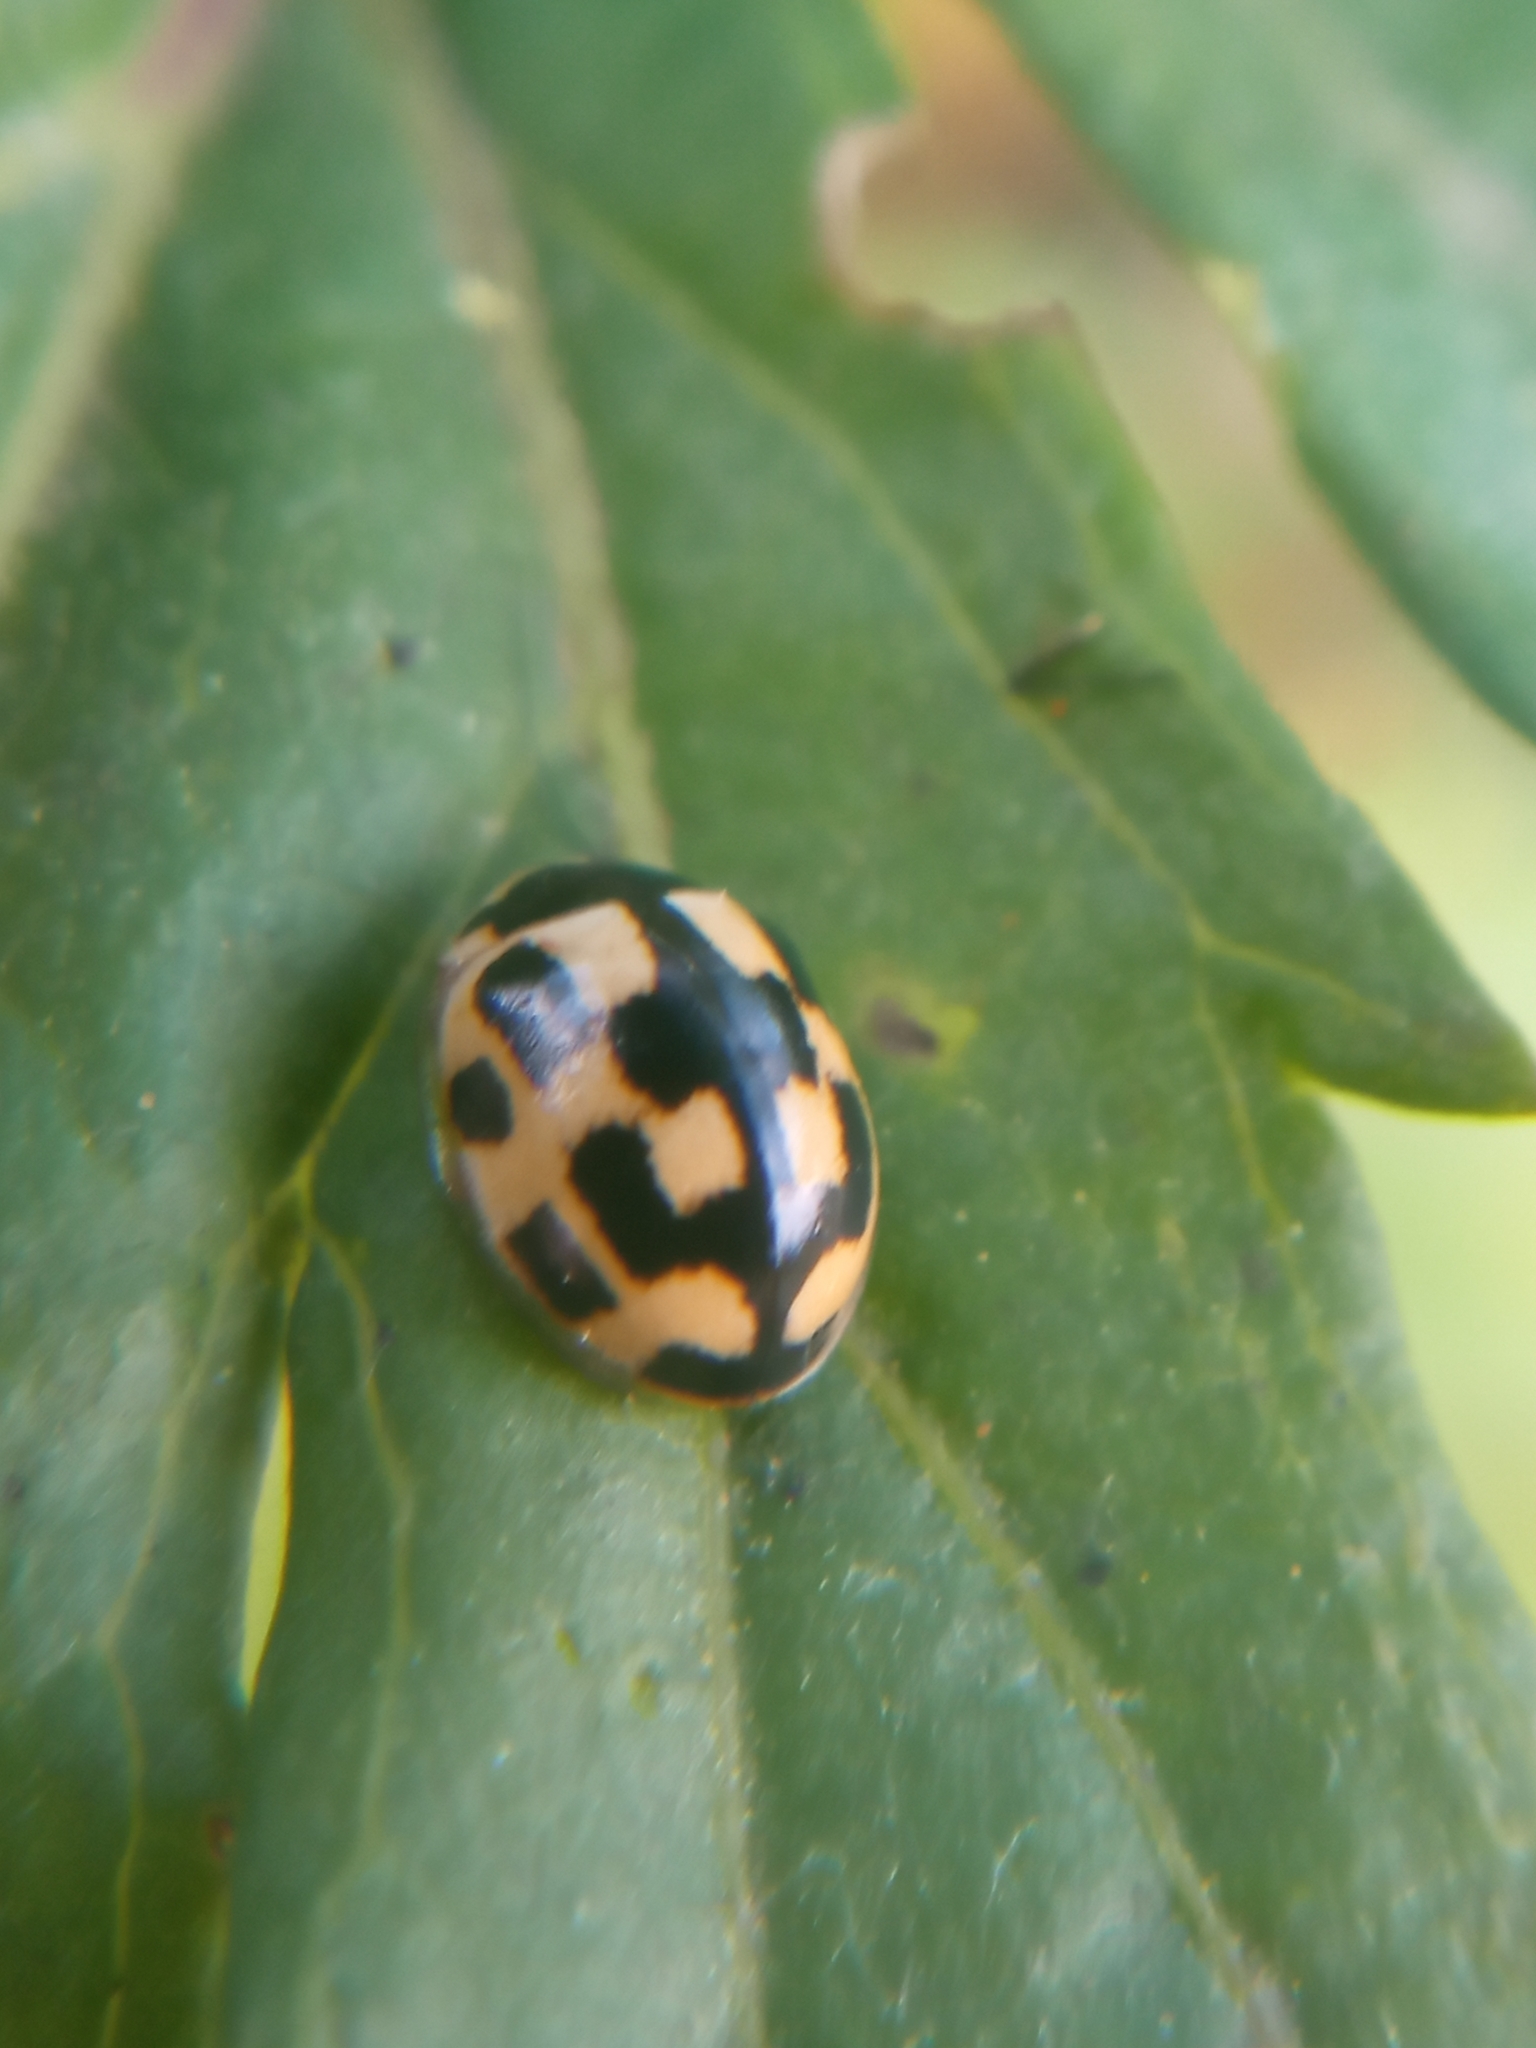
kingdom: Animalia
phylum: Arthropoda
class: Insecta
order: Coleoptera
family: Coccinellidae
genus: Propylaea
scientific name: Propylaea quatuordecimpunctata
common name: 14-spotted ladybird beetle
